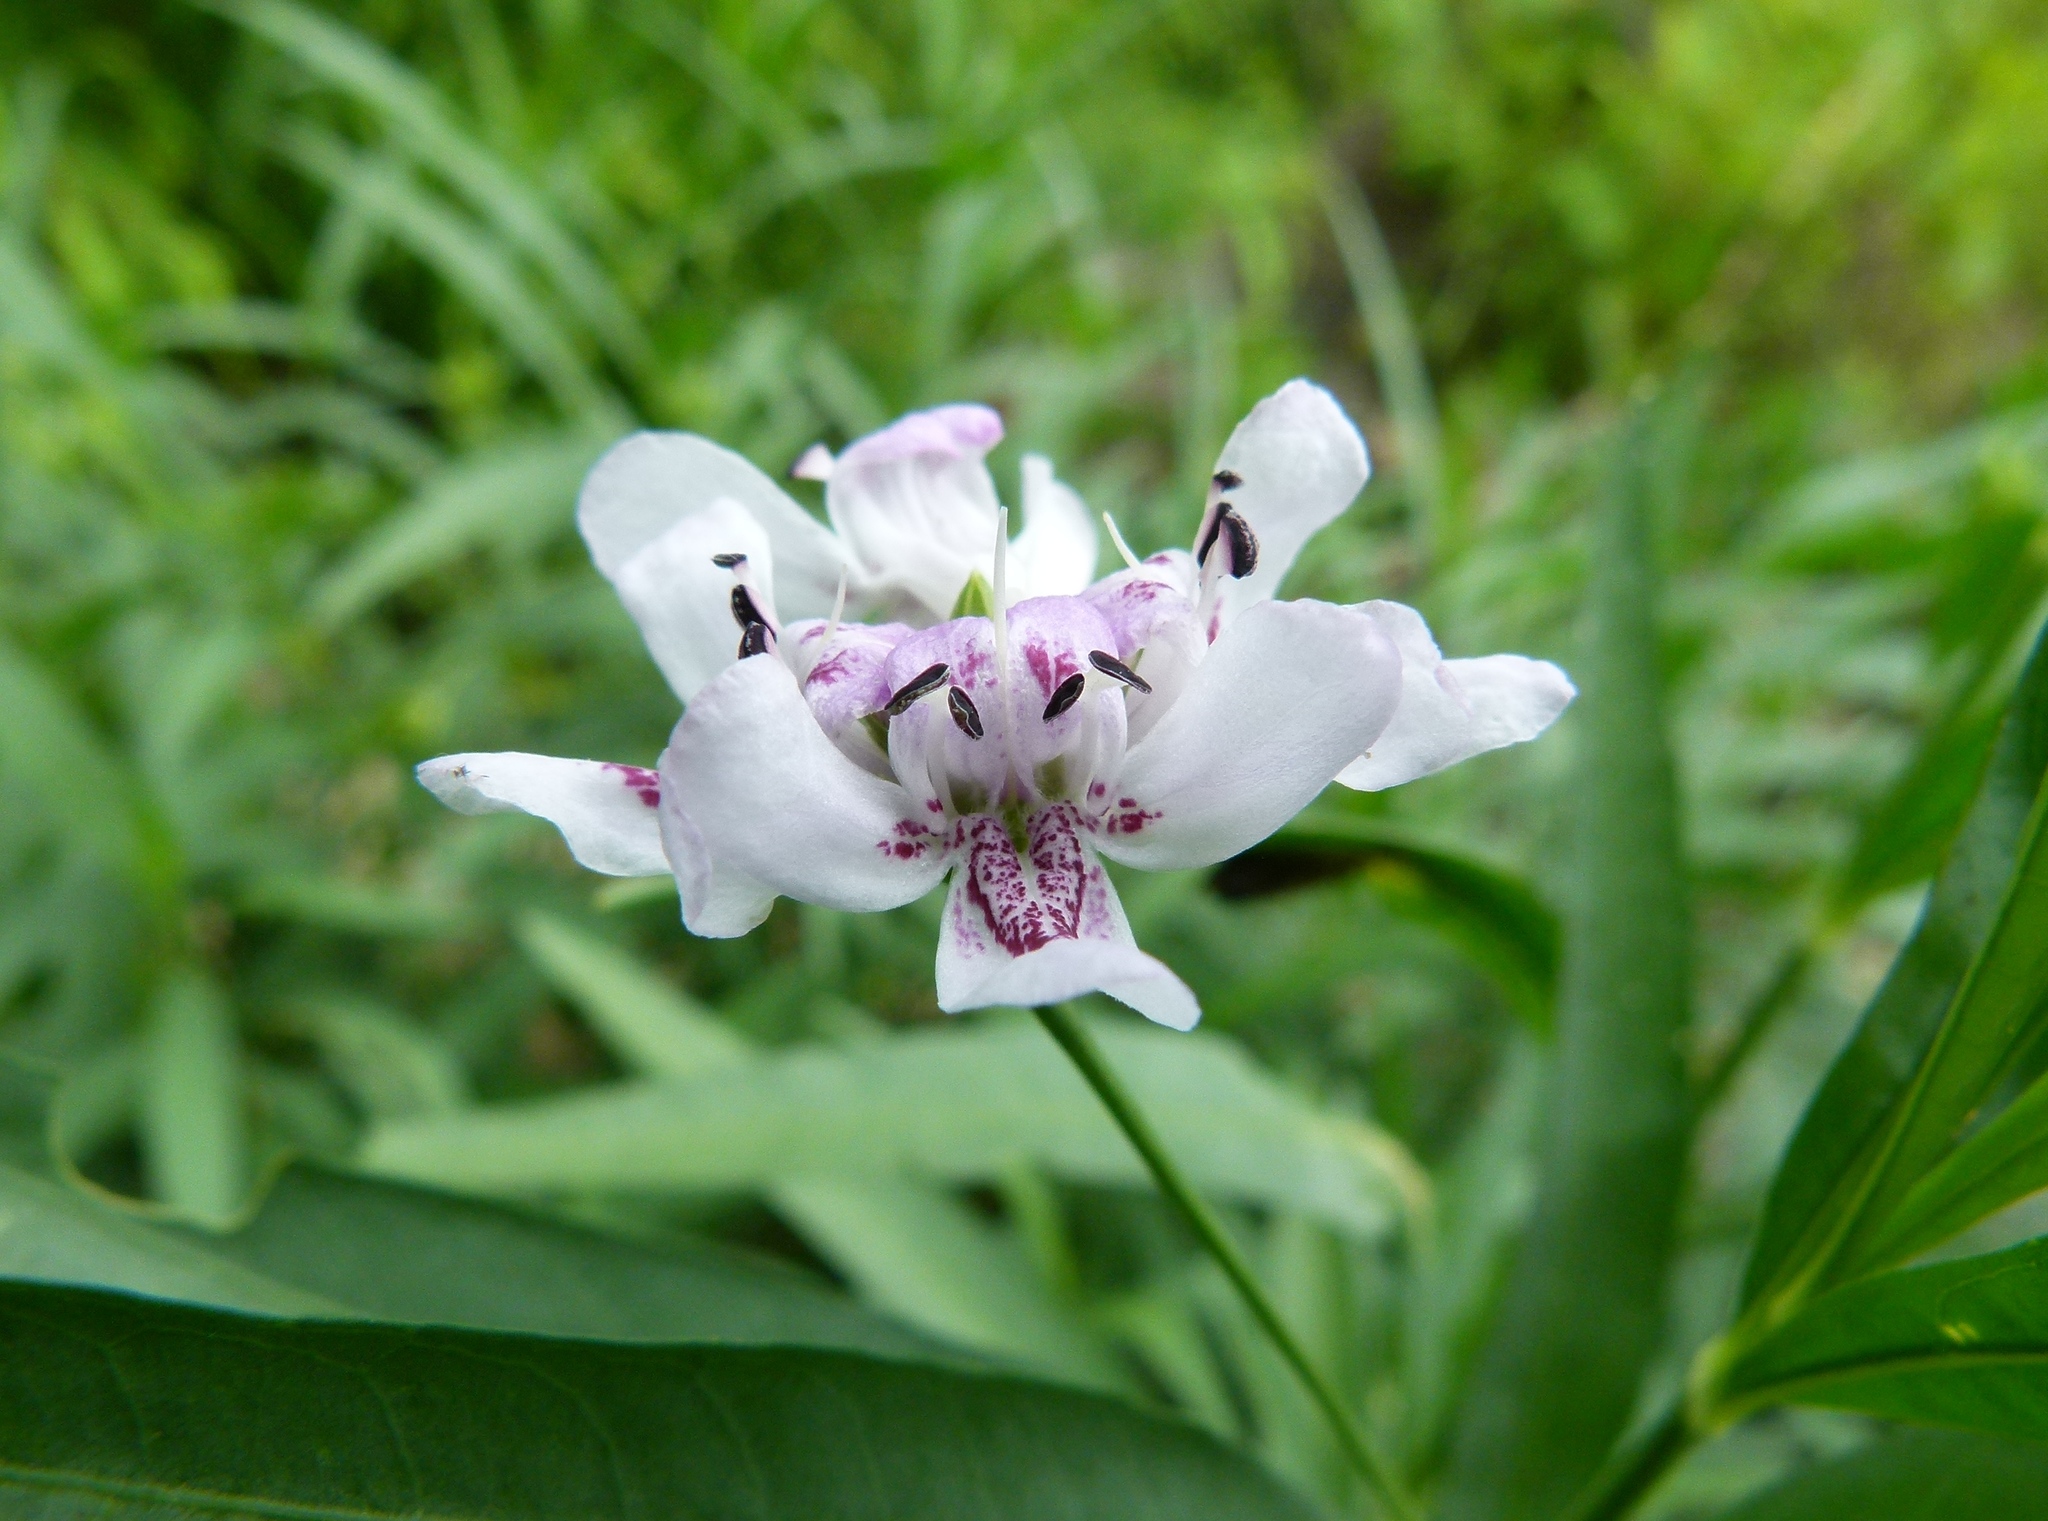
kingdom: Plantae
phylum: Tracheophyta
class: Magnoliopsida
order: Lamiales
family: Acanthaceae
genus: Dianthera
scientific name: Dianthera americana
